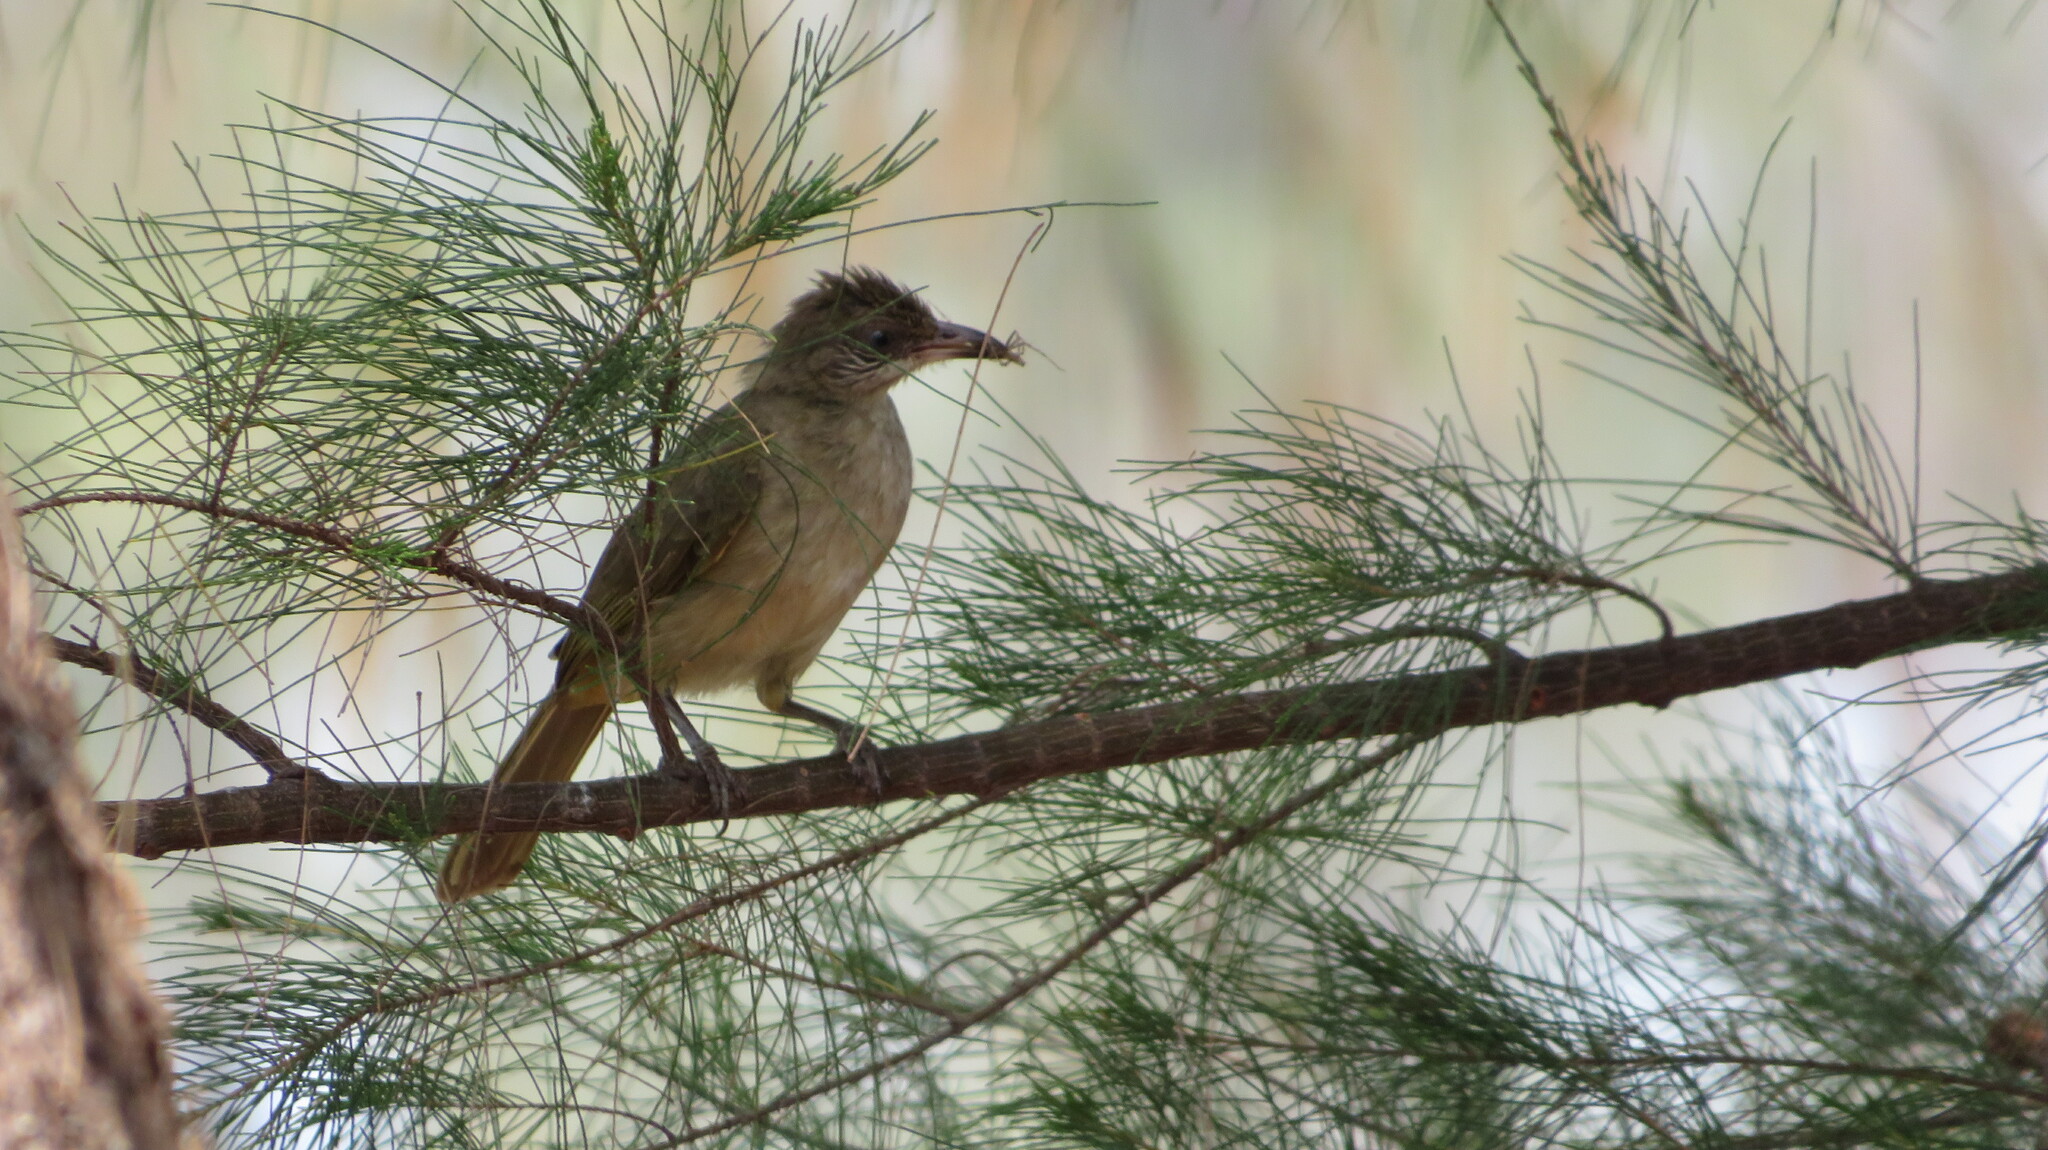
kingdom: Animalia
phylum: Chordata
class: Aves
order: Passeriformes
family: Pycnonotidae
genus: Pycnonotus
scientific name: Pycnonotus blanfordi
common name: Streak-eared bulbul
